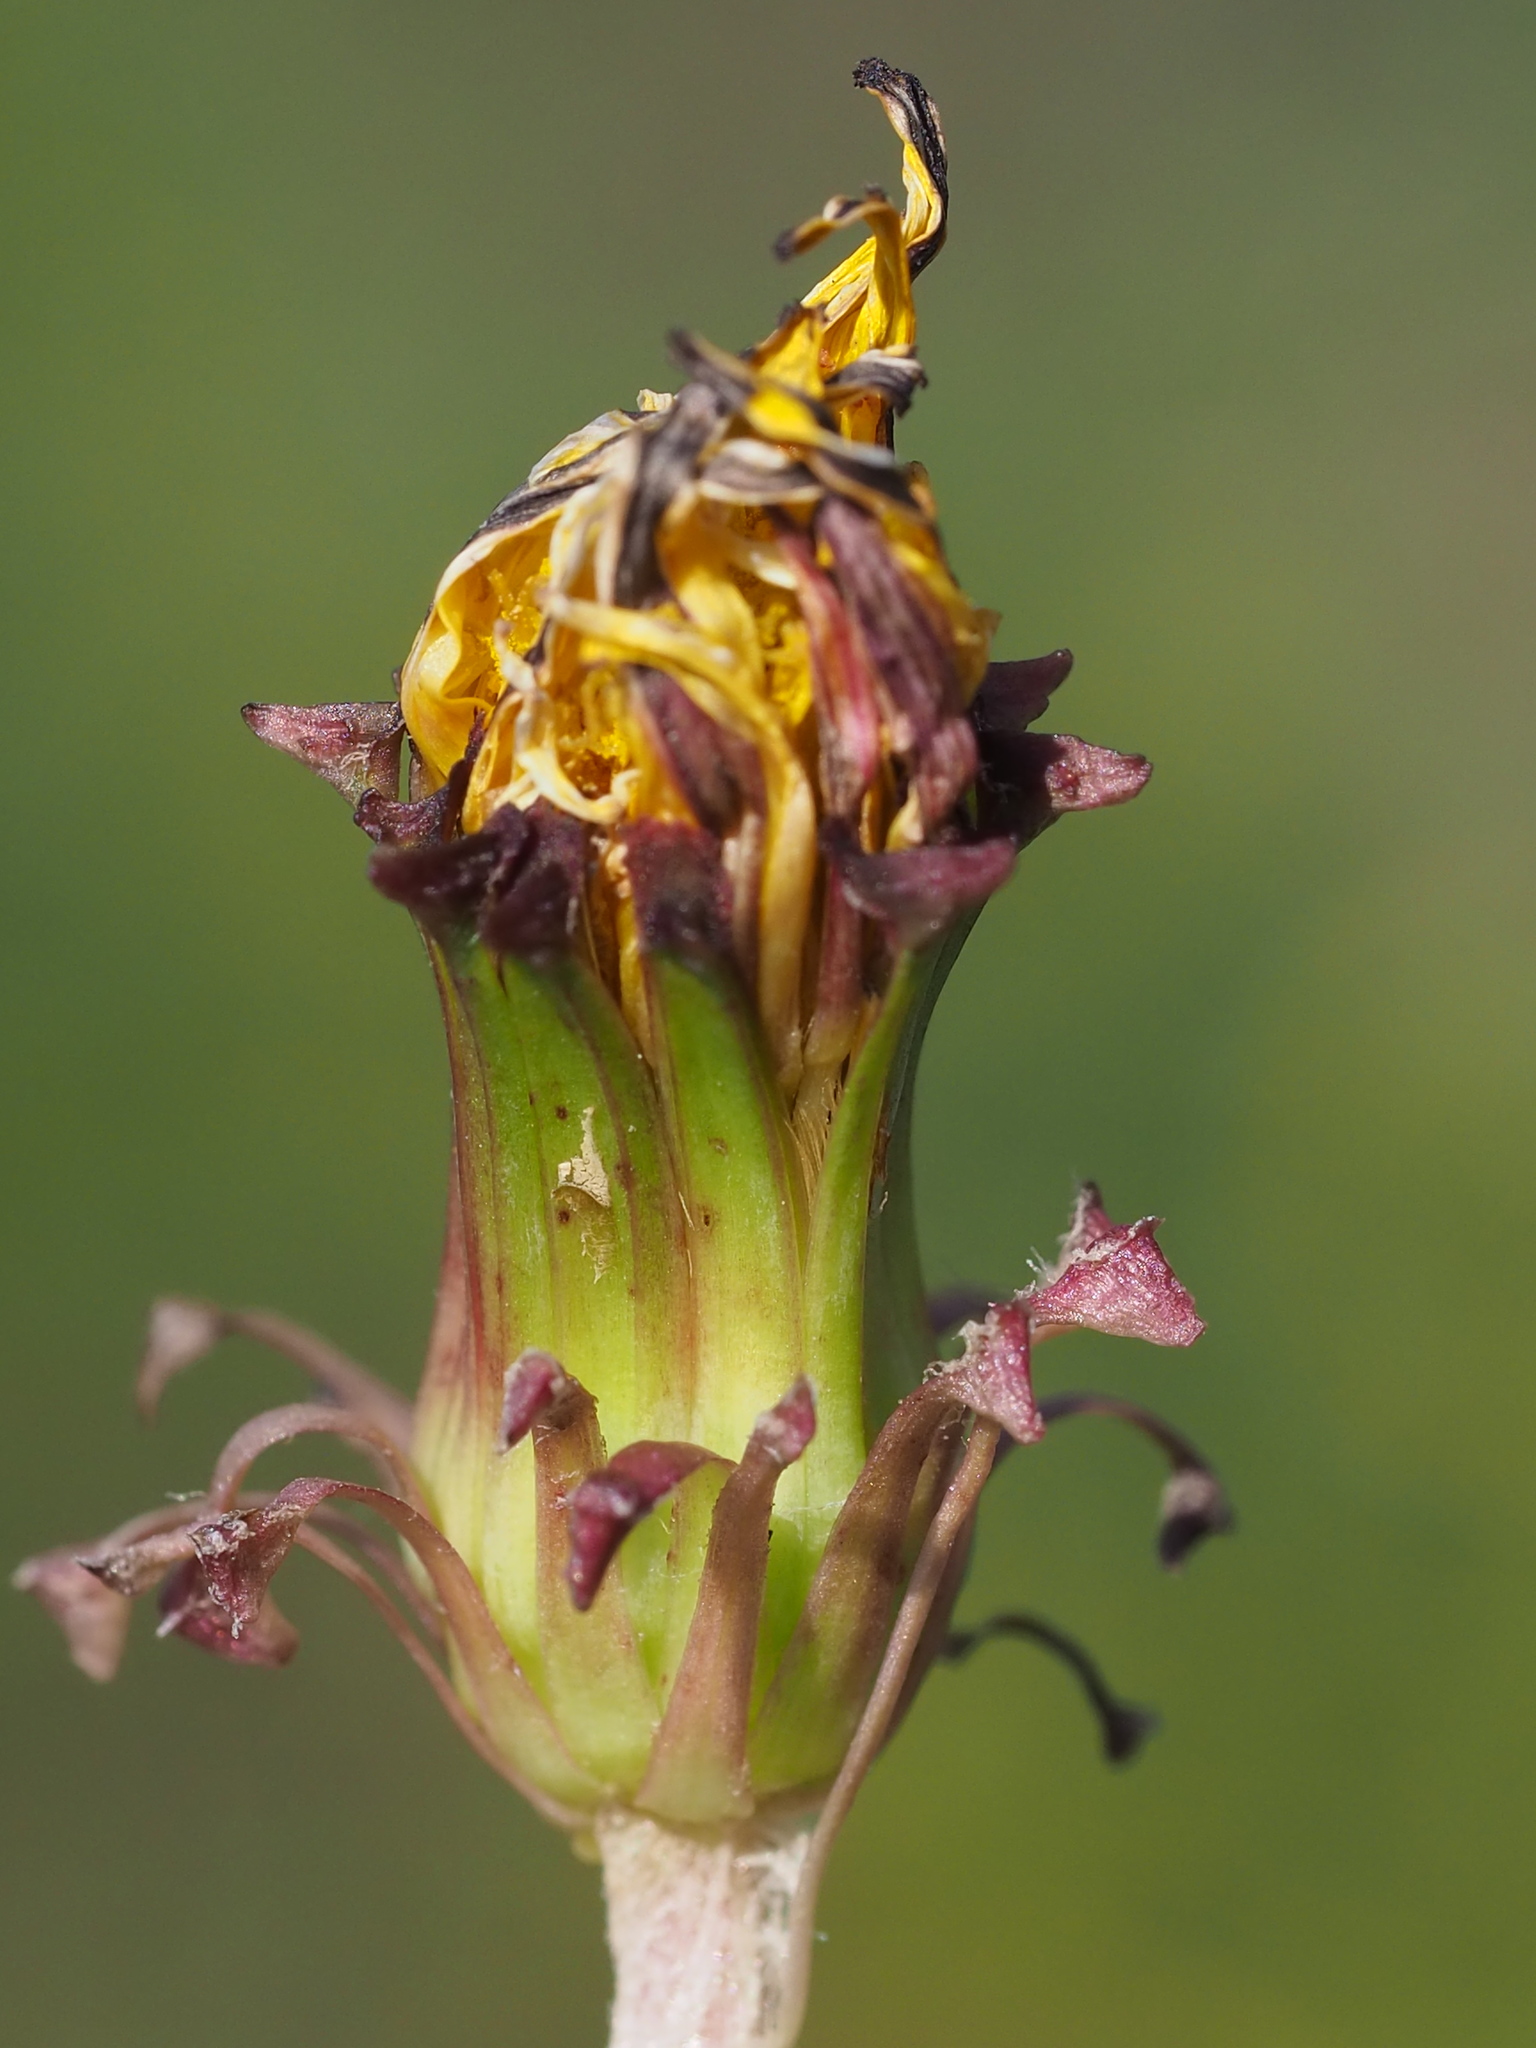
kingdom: Plantae
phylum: Tracheophyta
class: Magnoliopsida
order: Asterales
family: Asteraceae
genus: Taraxacum
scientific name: Taraxacum formosanum
